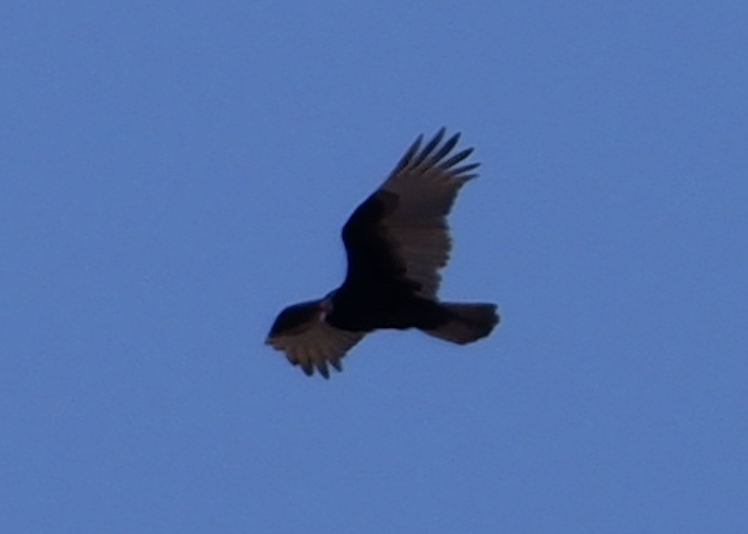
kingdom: Animalia
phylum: Chordata
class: Aves
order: Accipitriformes
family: Cathartidae
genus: Cathartes
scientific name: Cathartes aura
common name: Turkey vulture
